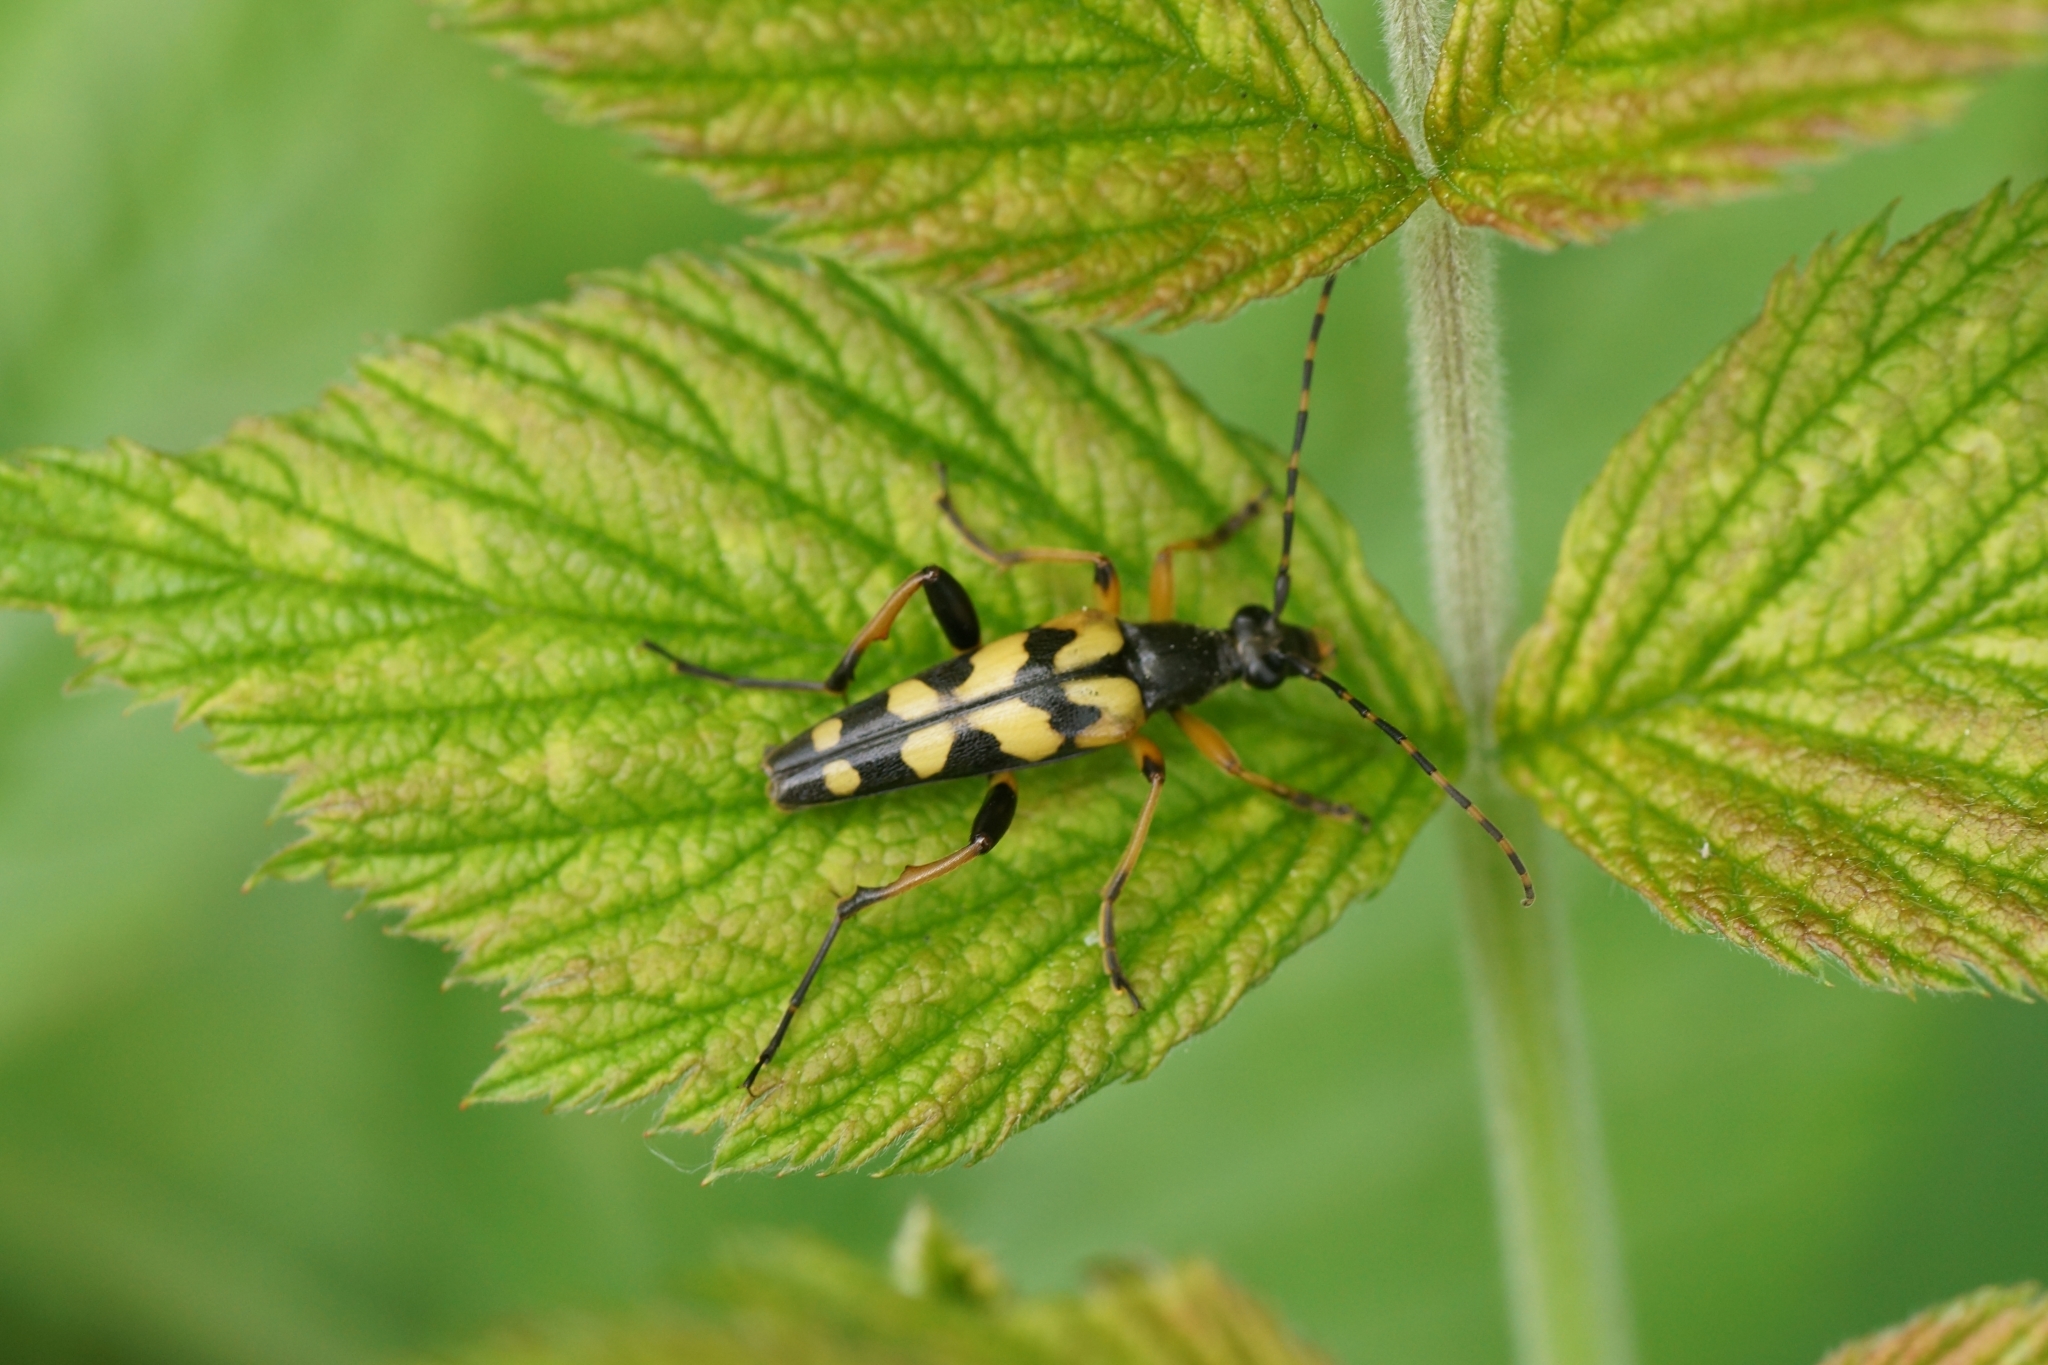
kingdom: Animalia
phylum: Arthropoda
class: Insecta
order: Coleoptera
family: Cerambycidae
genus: Rutpela
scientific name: Rutpela maculata
